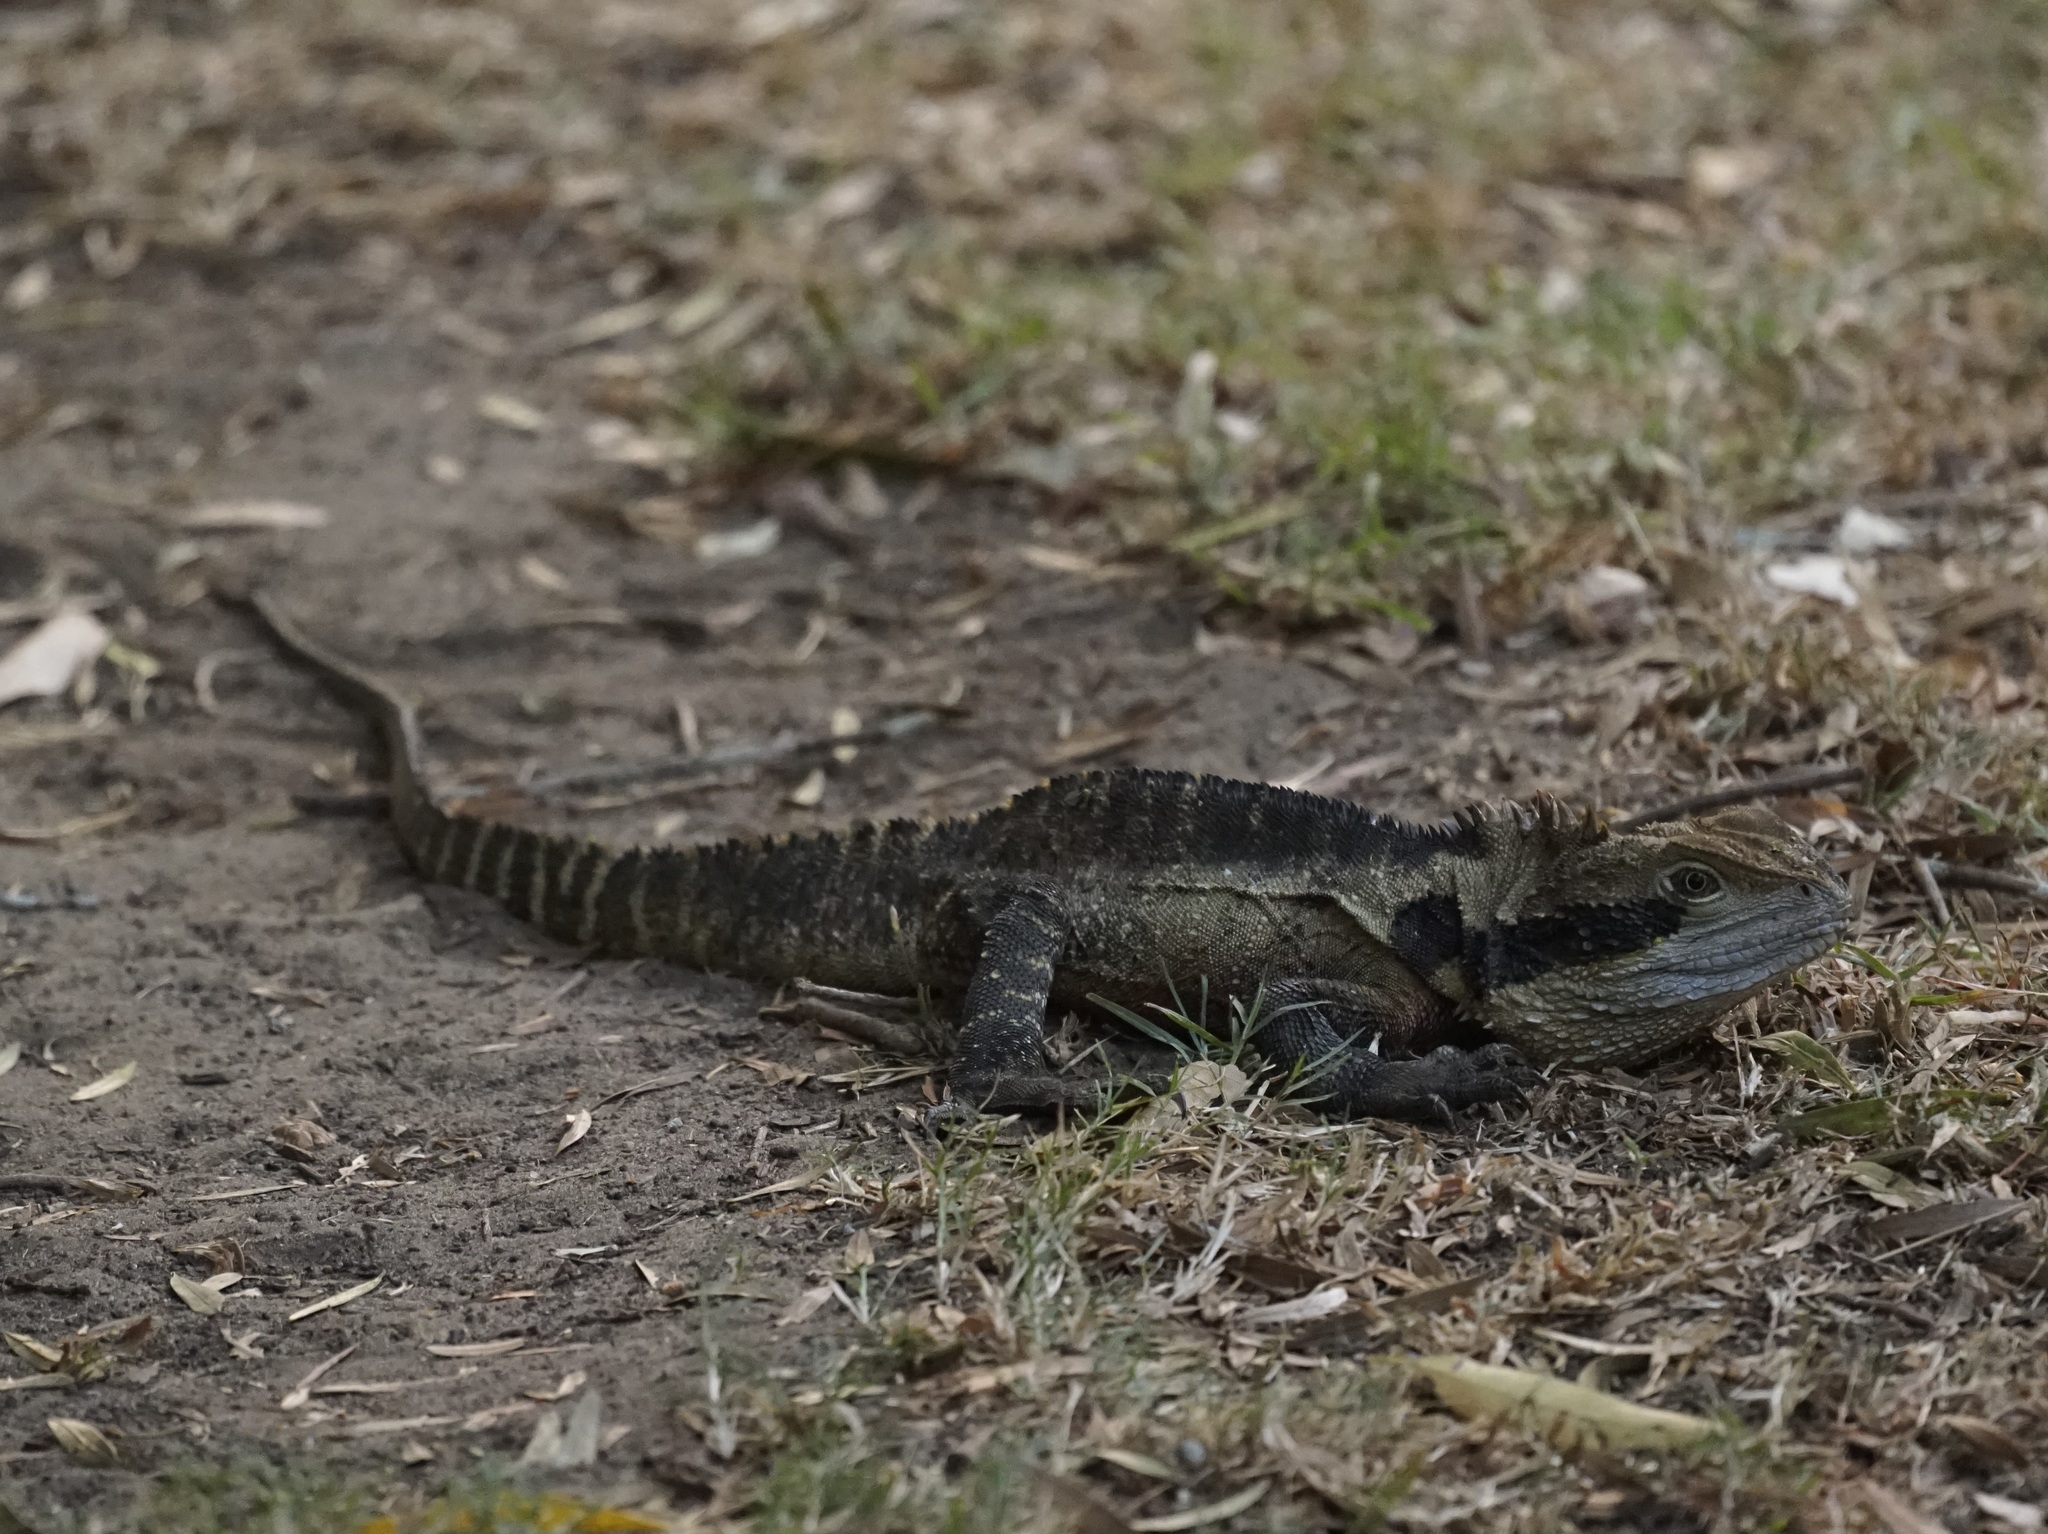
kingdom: Animalia
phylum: Chordata
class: Squamata
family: Agamidae
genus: Intellagama
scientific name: Intellagama lesueurii
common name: Eastern water dragon
